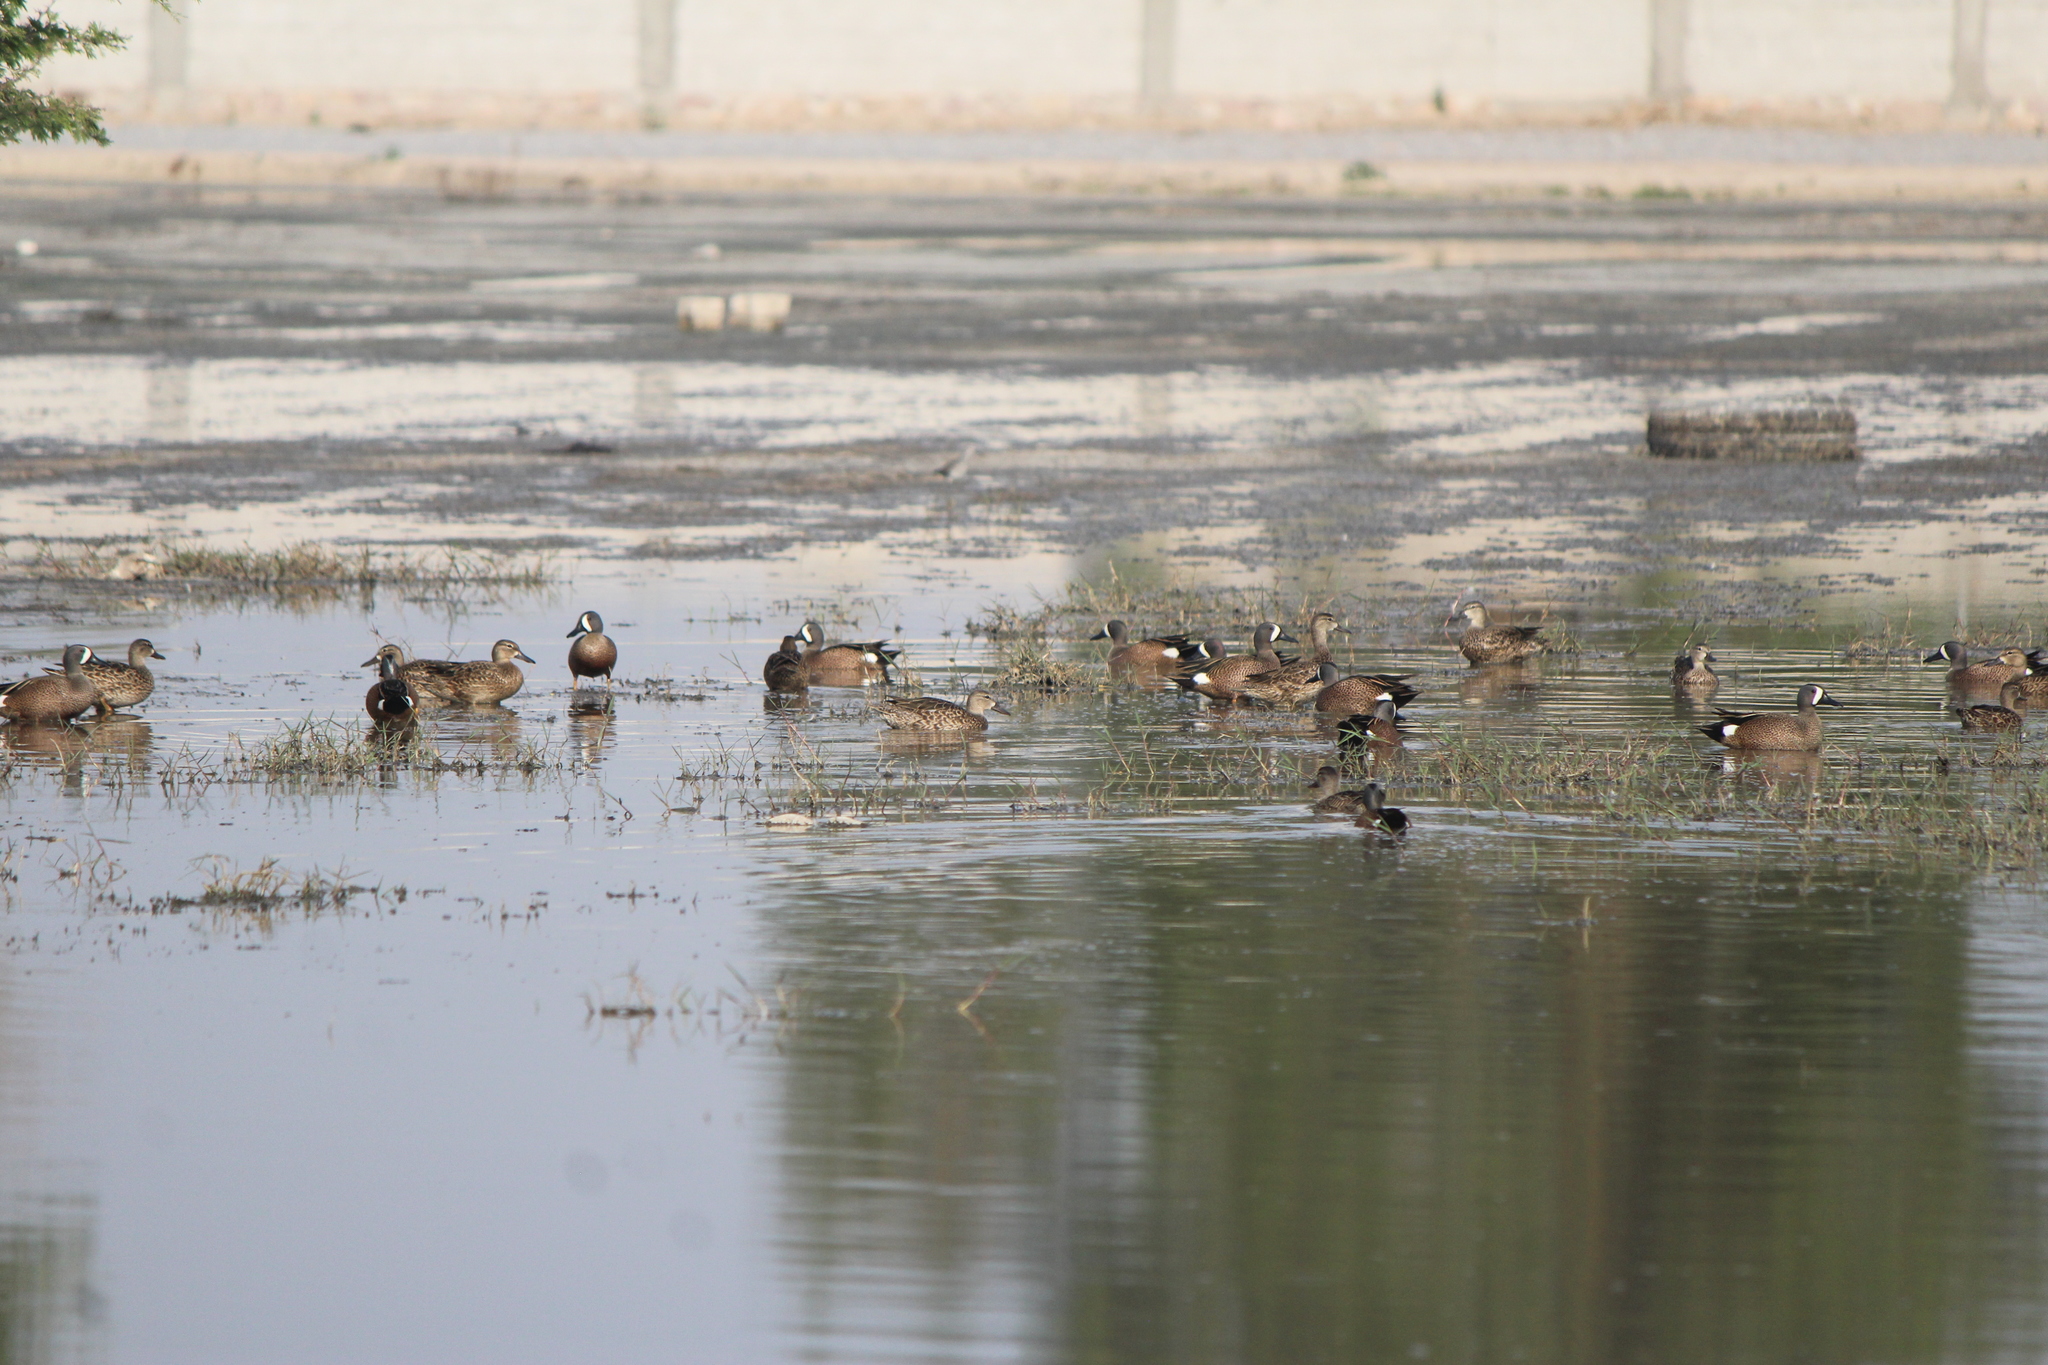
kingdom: Animalia
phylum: Chordata
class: Aves
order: Anseriformes
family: Anatidae
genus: Spatula
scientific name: Spatula discors
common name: Blue-winged teal
